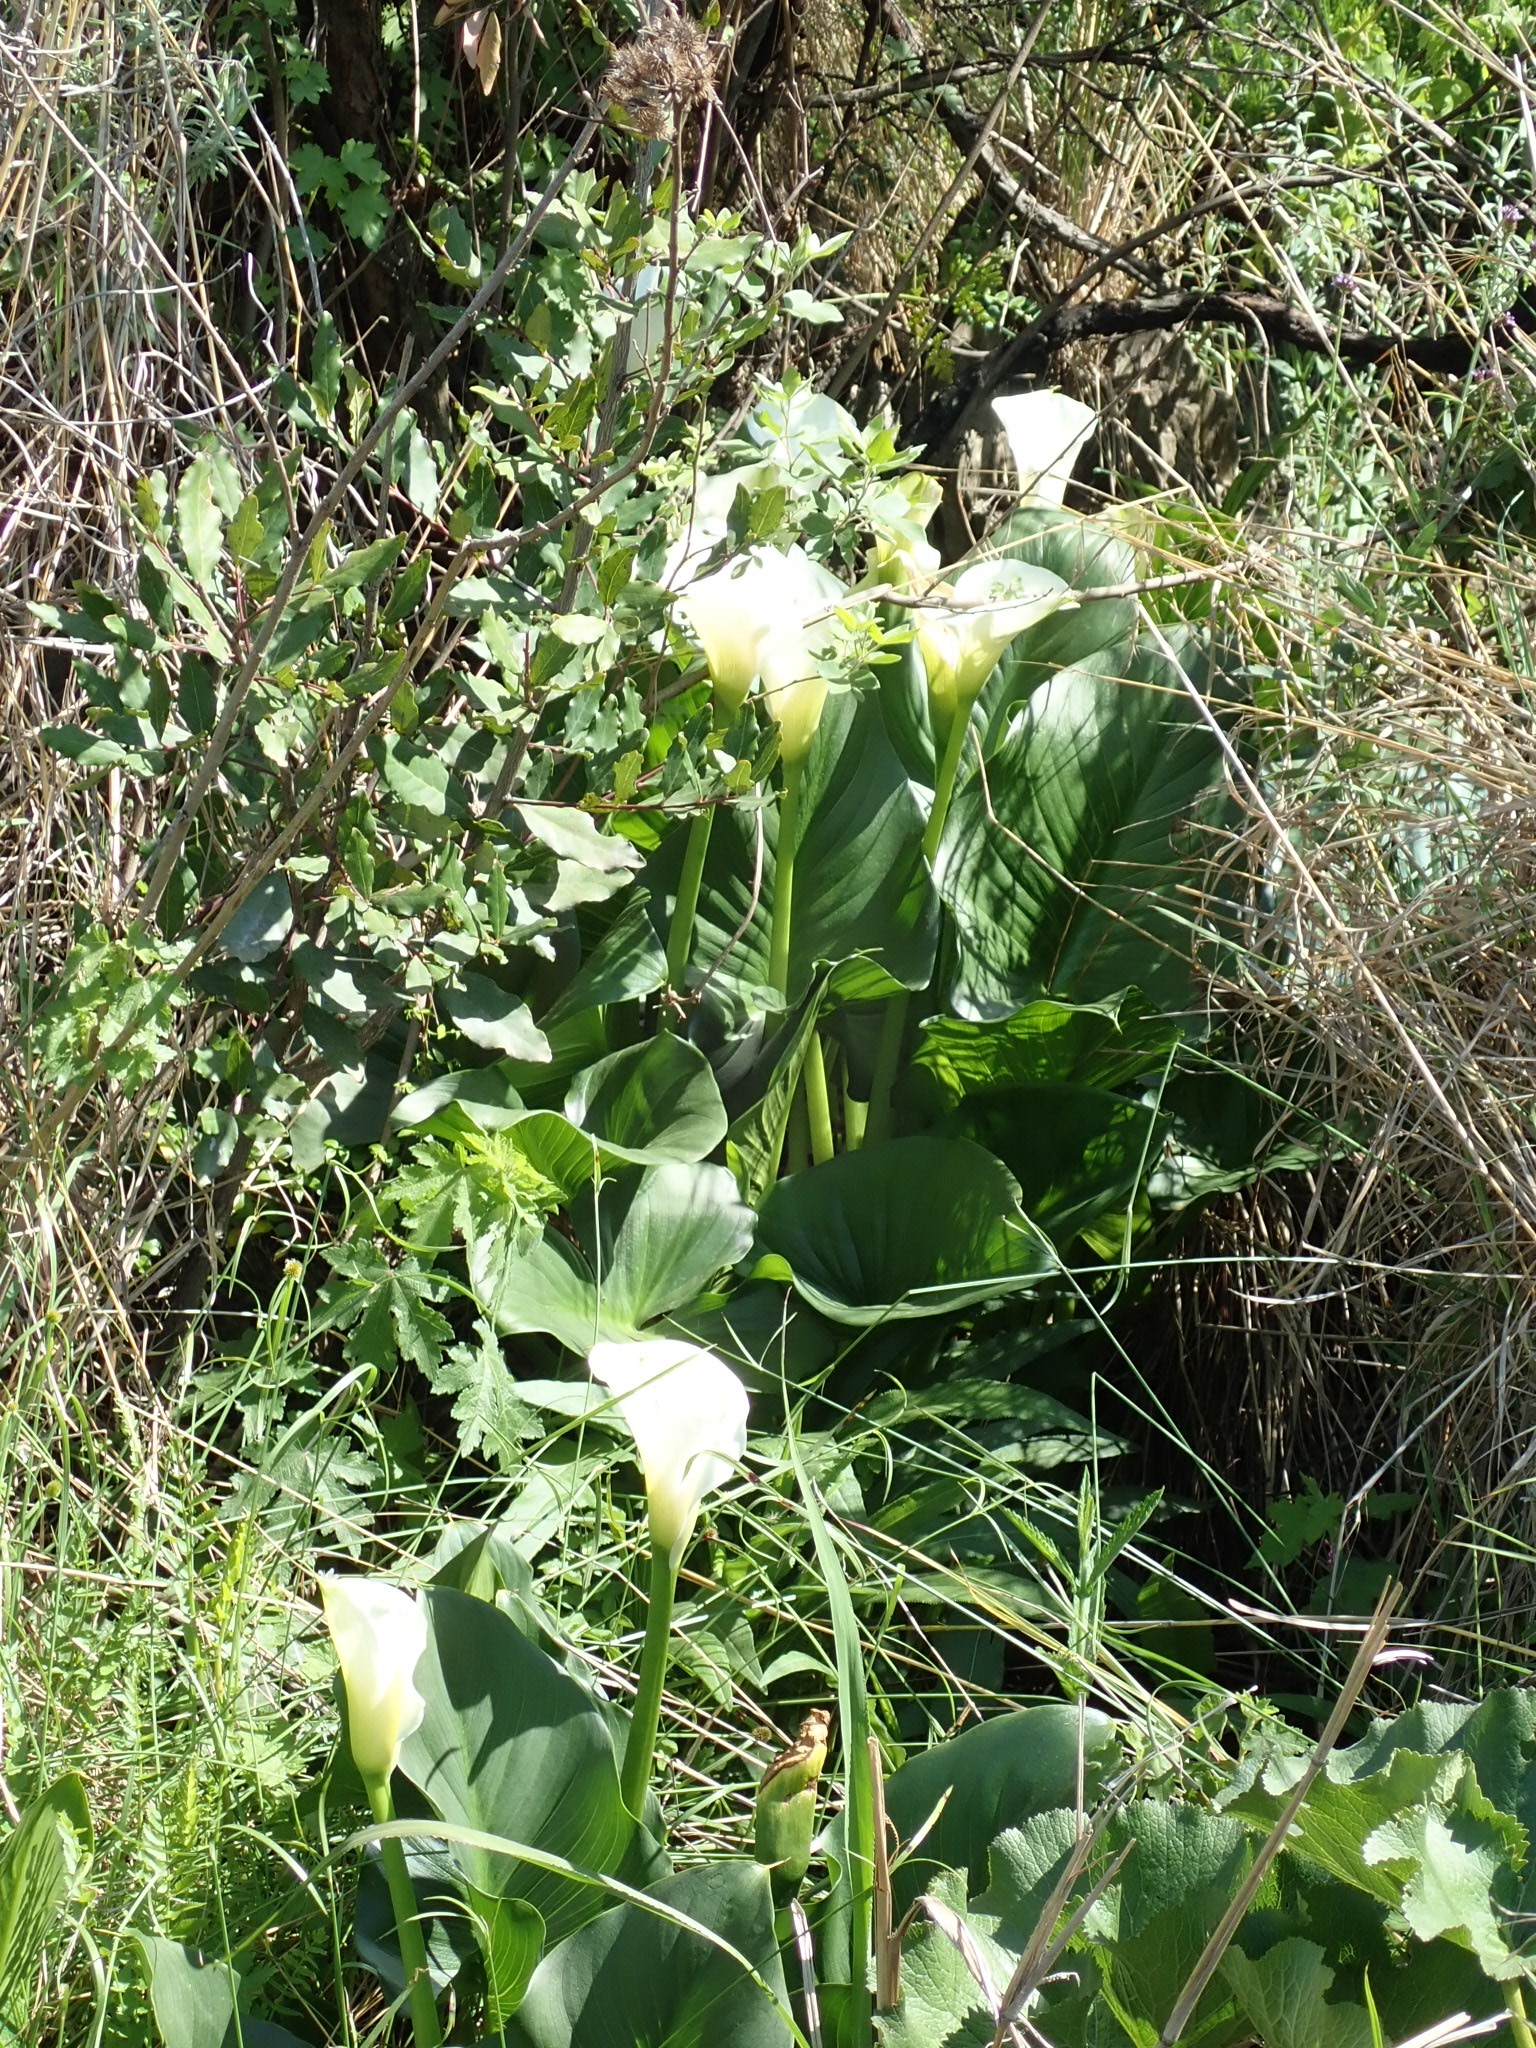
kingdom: Plantae
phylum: Tracheophyta
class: Liliopsida
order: Alismatales
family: Araceae
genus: Zantedeschia
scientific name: Zantedeschia aethiopica
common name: Altar-lily
